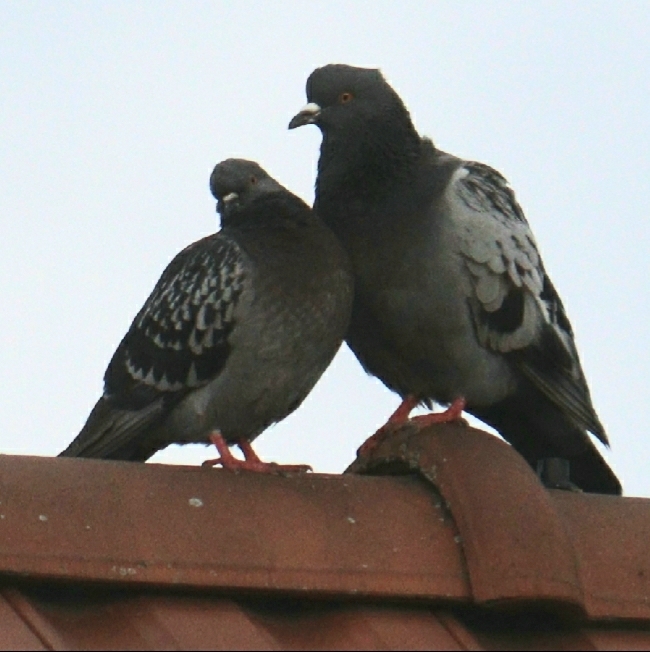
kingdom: Animalia
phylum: Chordata
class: Aves
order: Columbiformes
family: Columbidae
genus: Columba
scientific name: Columba livia
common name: Rock pigeon
